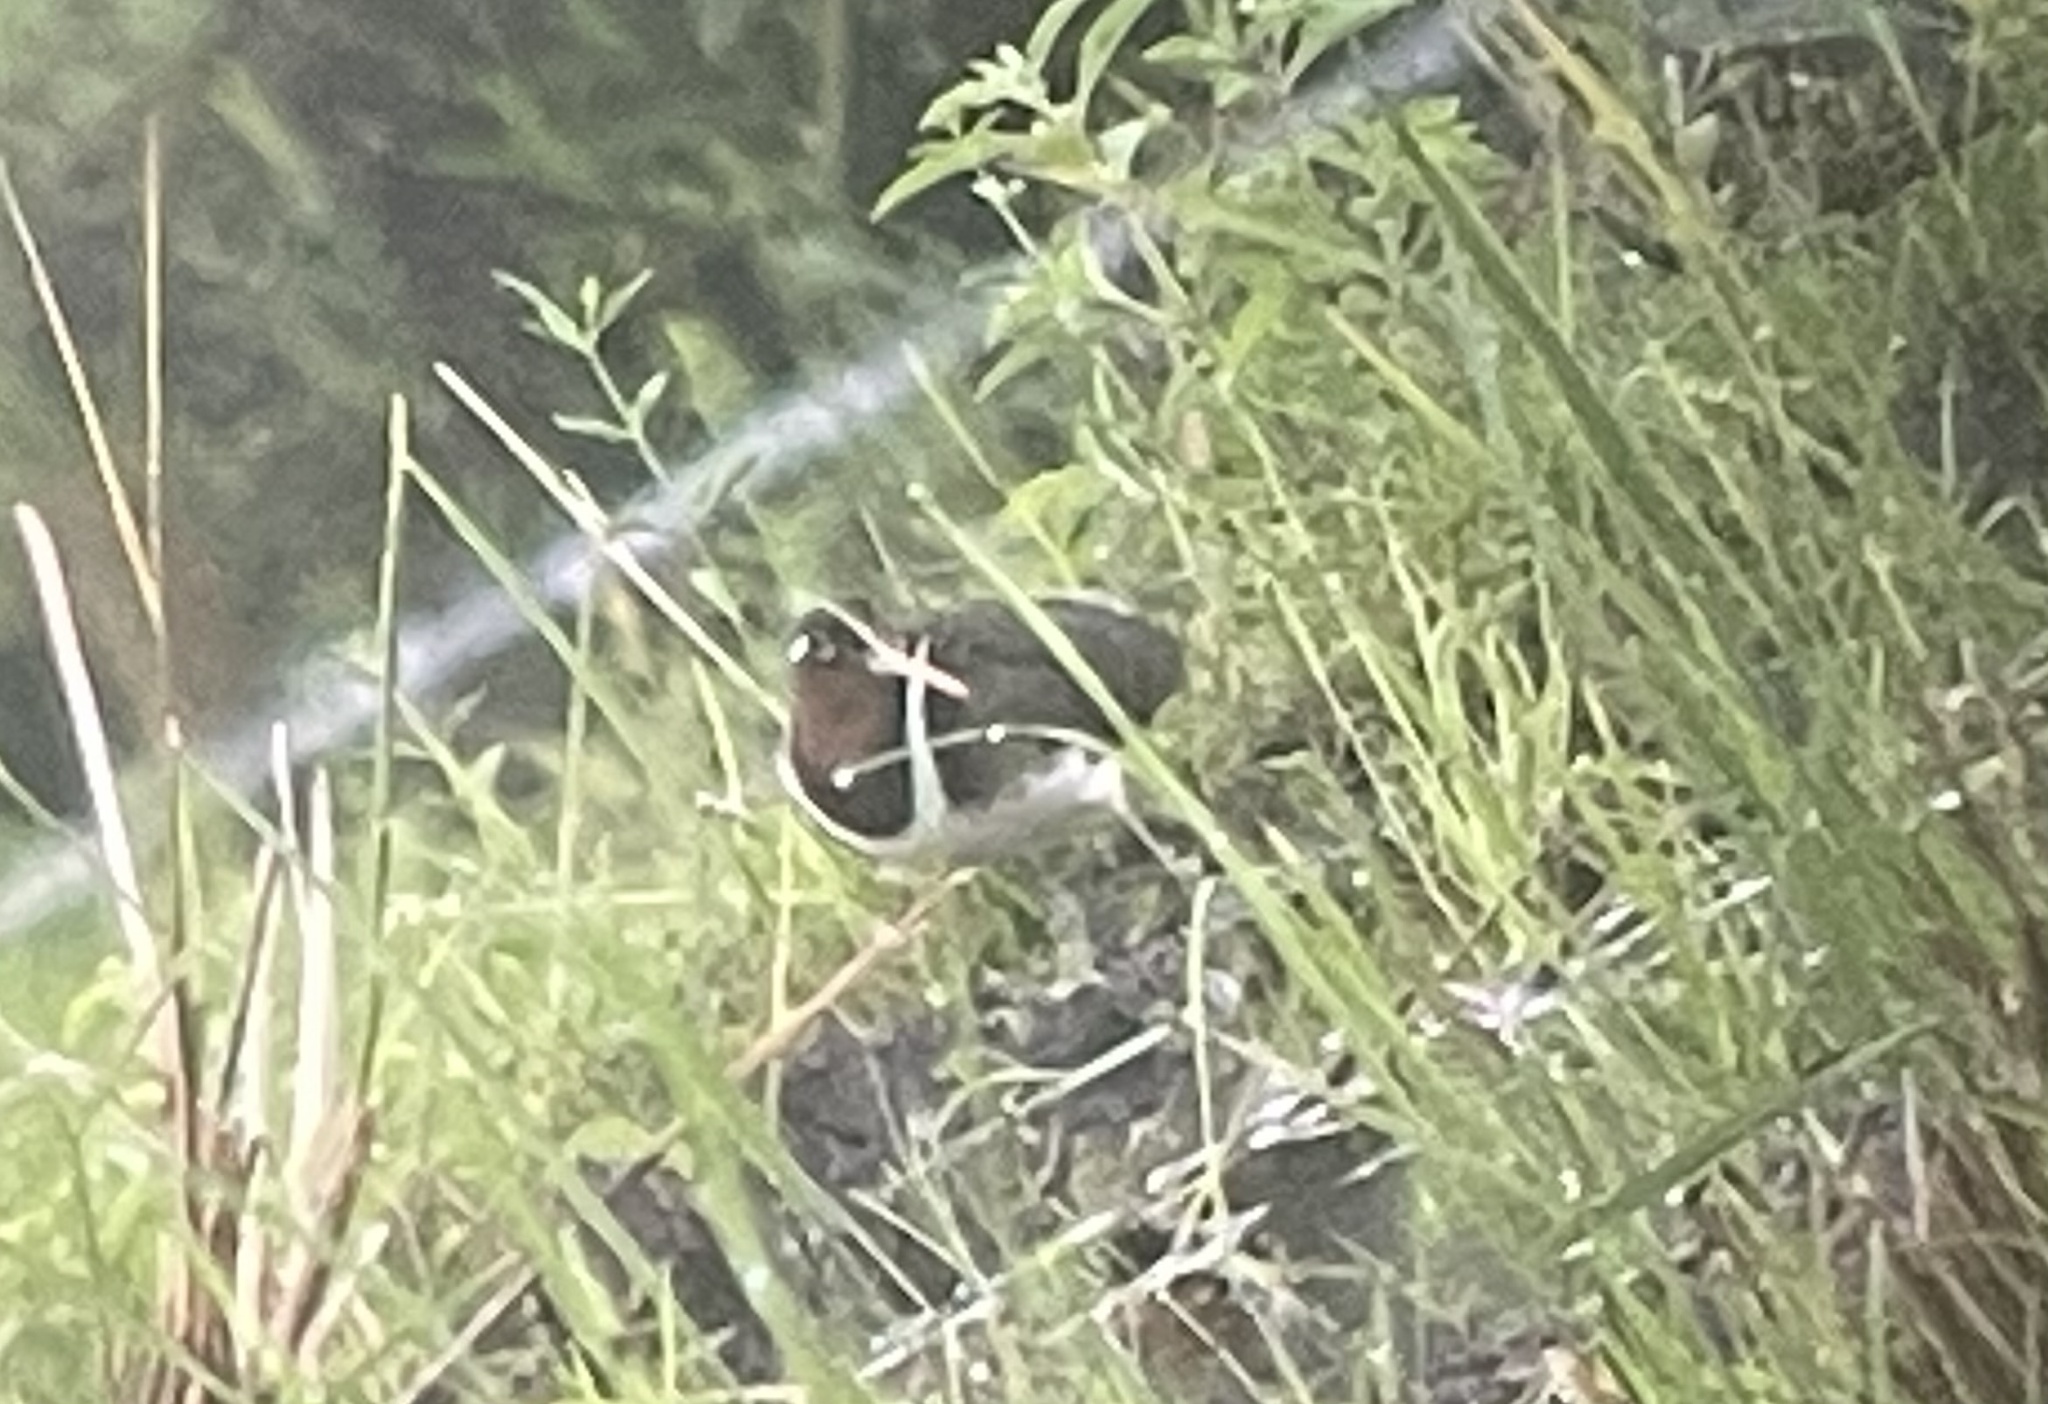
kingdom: Animalia
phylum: Chordata
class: Aves
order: Charadriiformes
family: Rostratulidae
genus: Rostratula
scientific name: Rostratula benghalensis
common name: Greater painted-snipe
